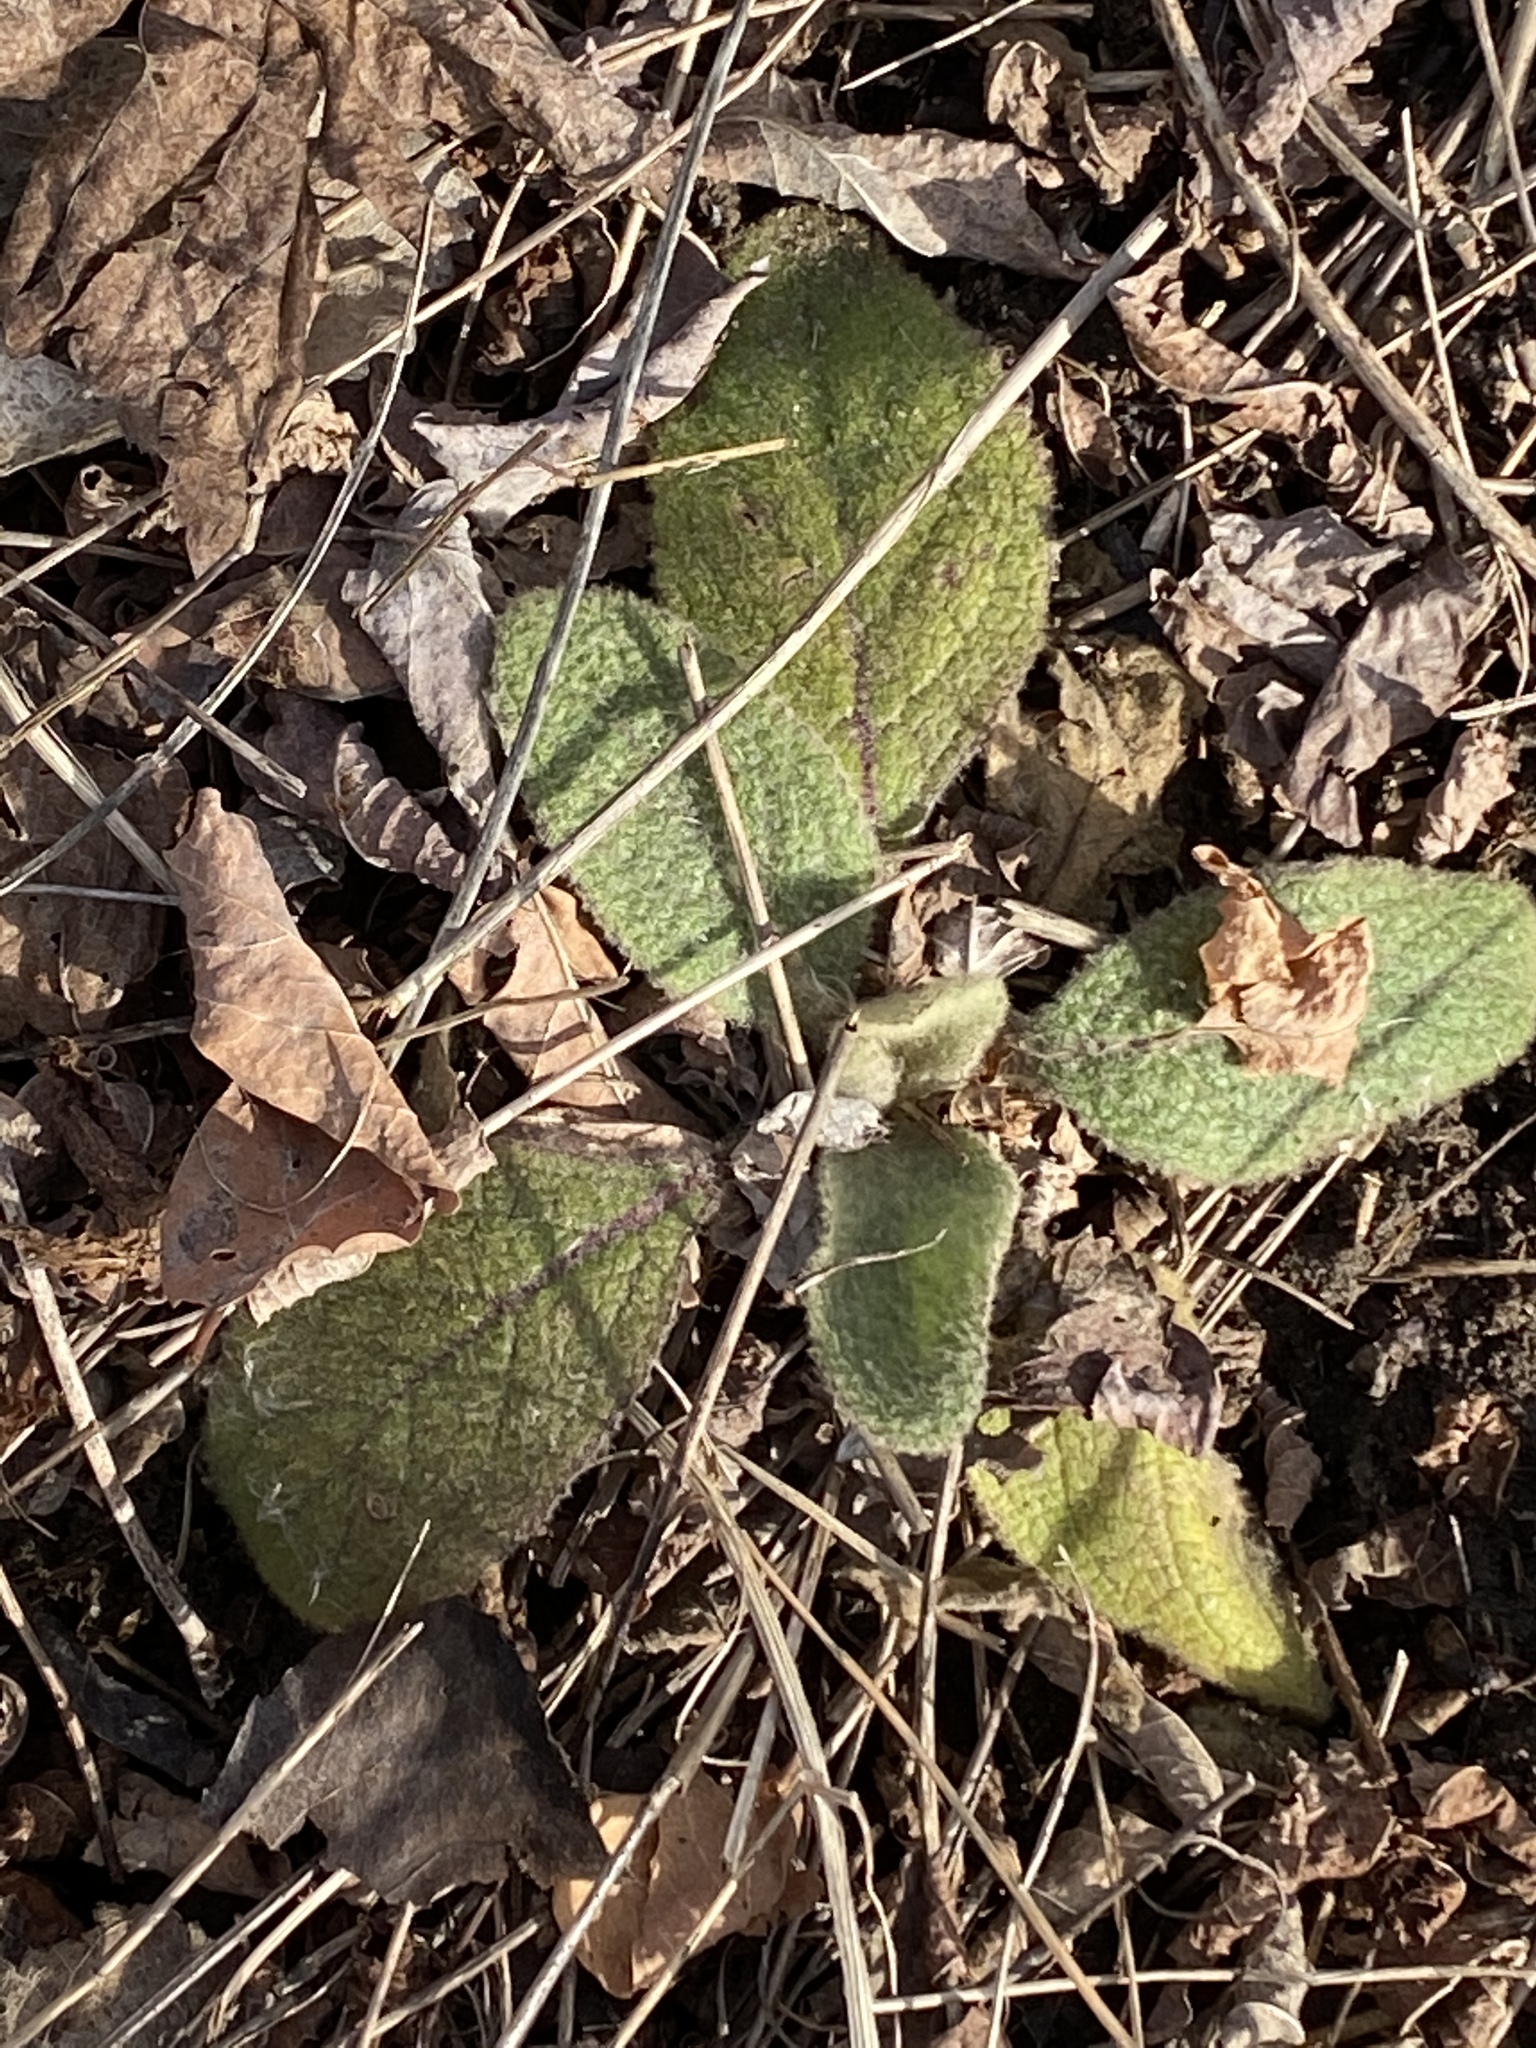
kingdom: Plantae
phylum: Tracheophyta
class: Magnoliopsida
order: Lamiales
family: Scrophulariaceae
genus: Verbascum
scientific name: Verbascum thapsus
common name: Common mullein
